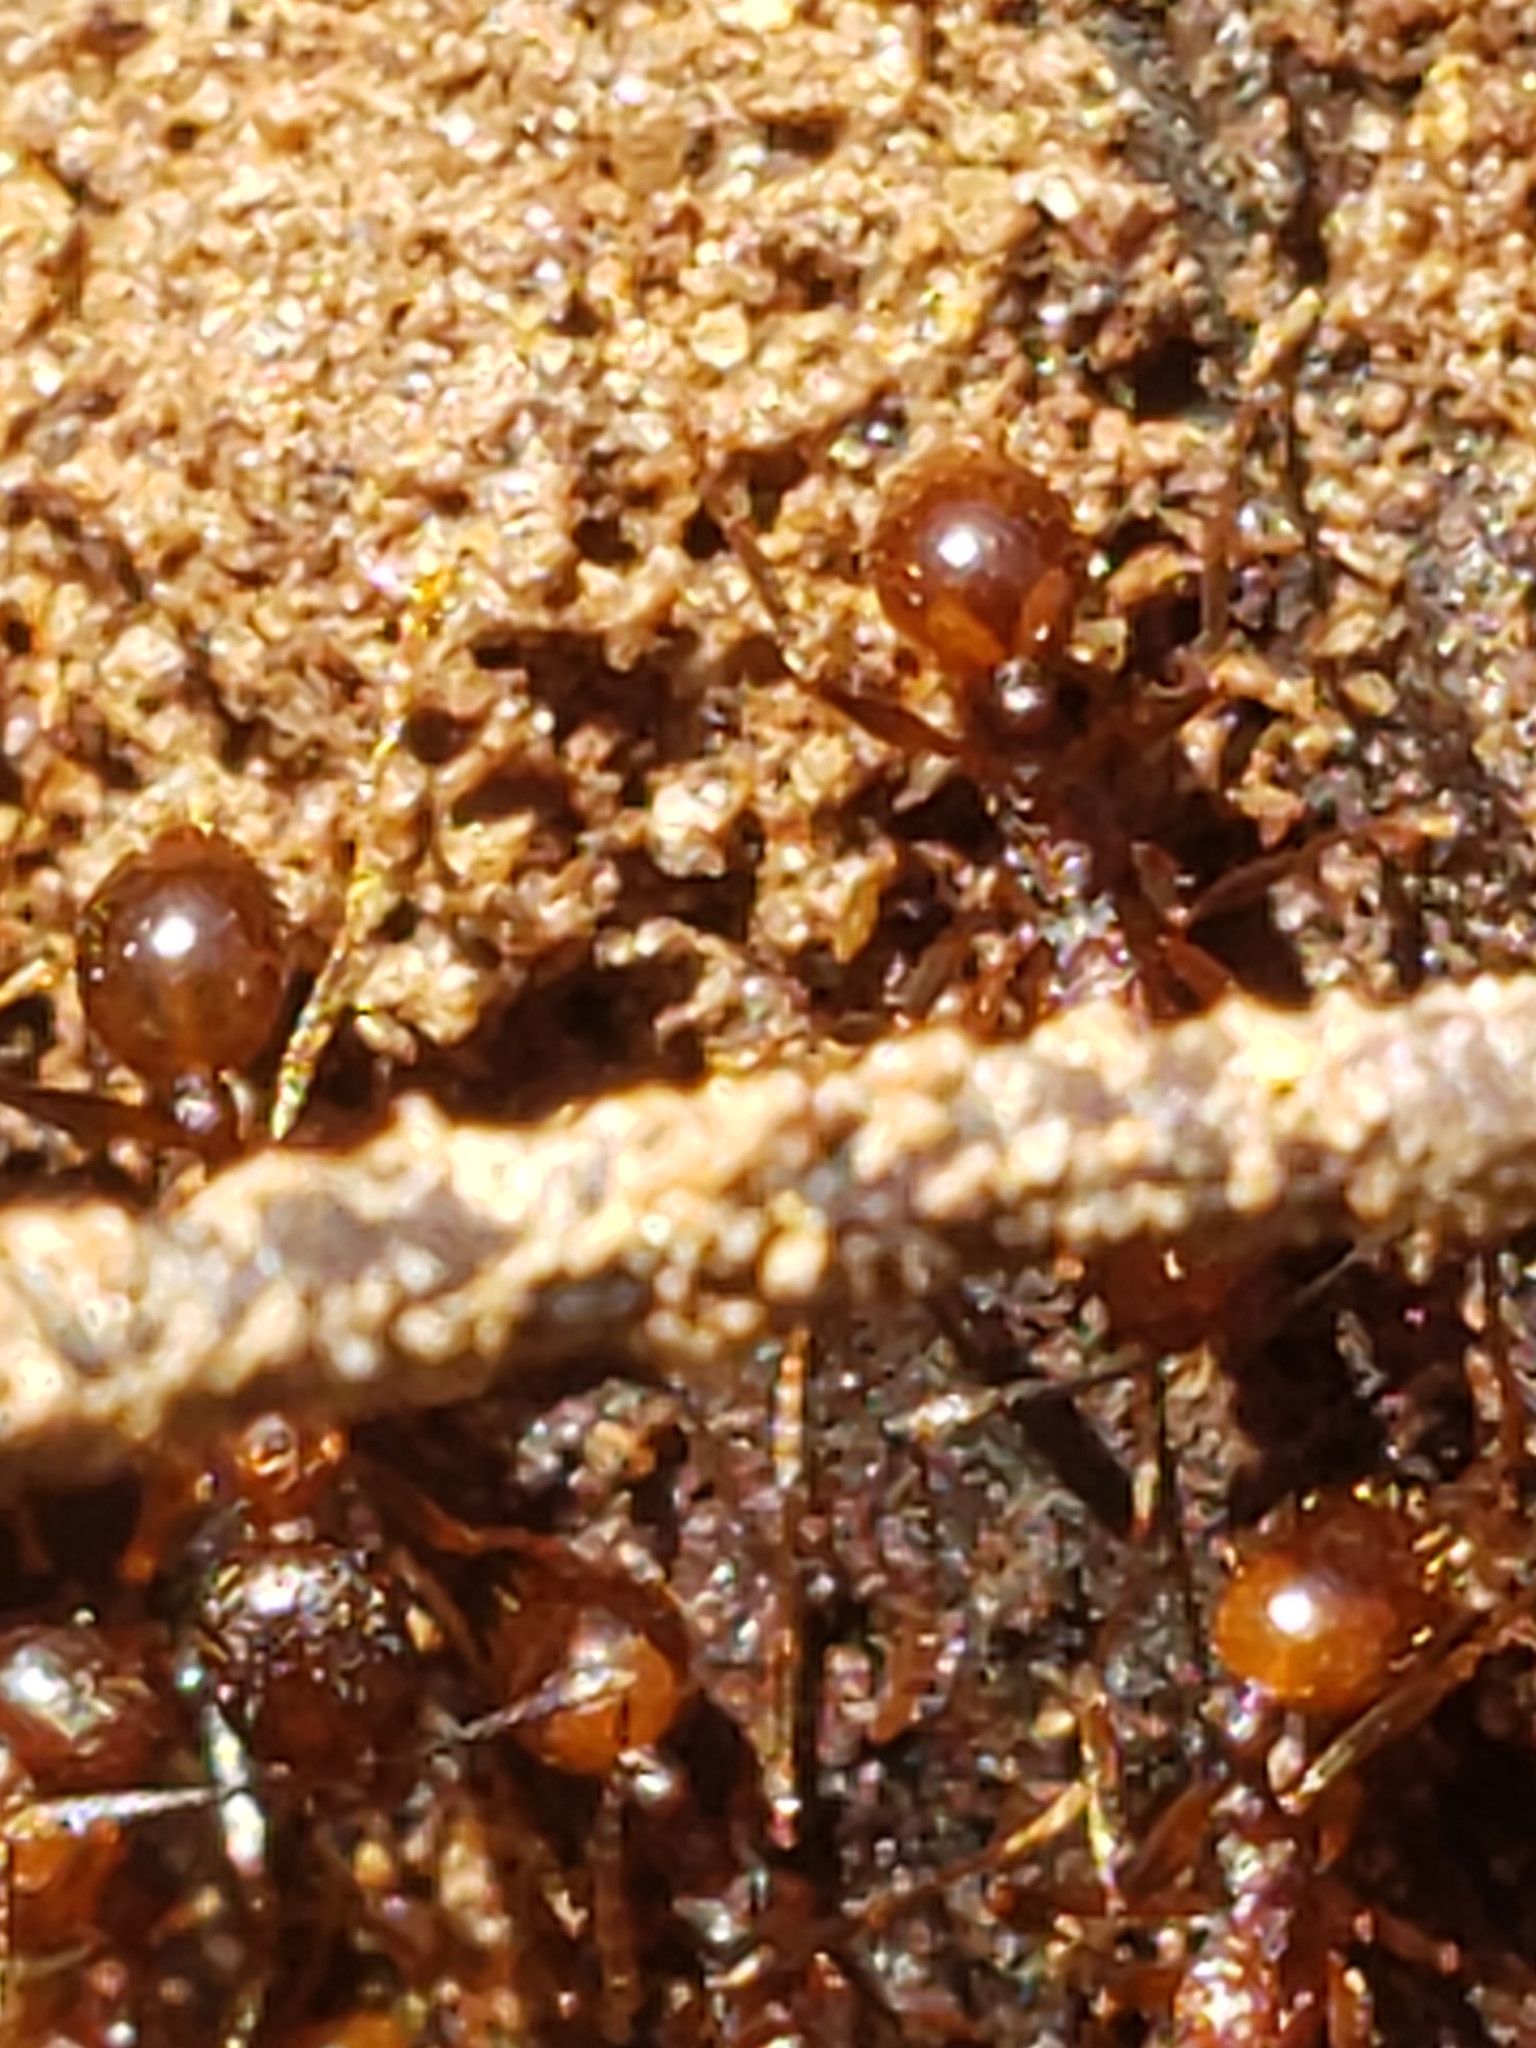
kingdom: Animalia
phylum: Arthropoda
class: Insecta
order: Hymenoptera
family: Formicidae
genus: Aphaenogaster
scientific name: Aphaenogaster fulva
